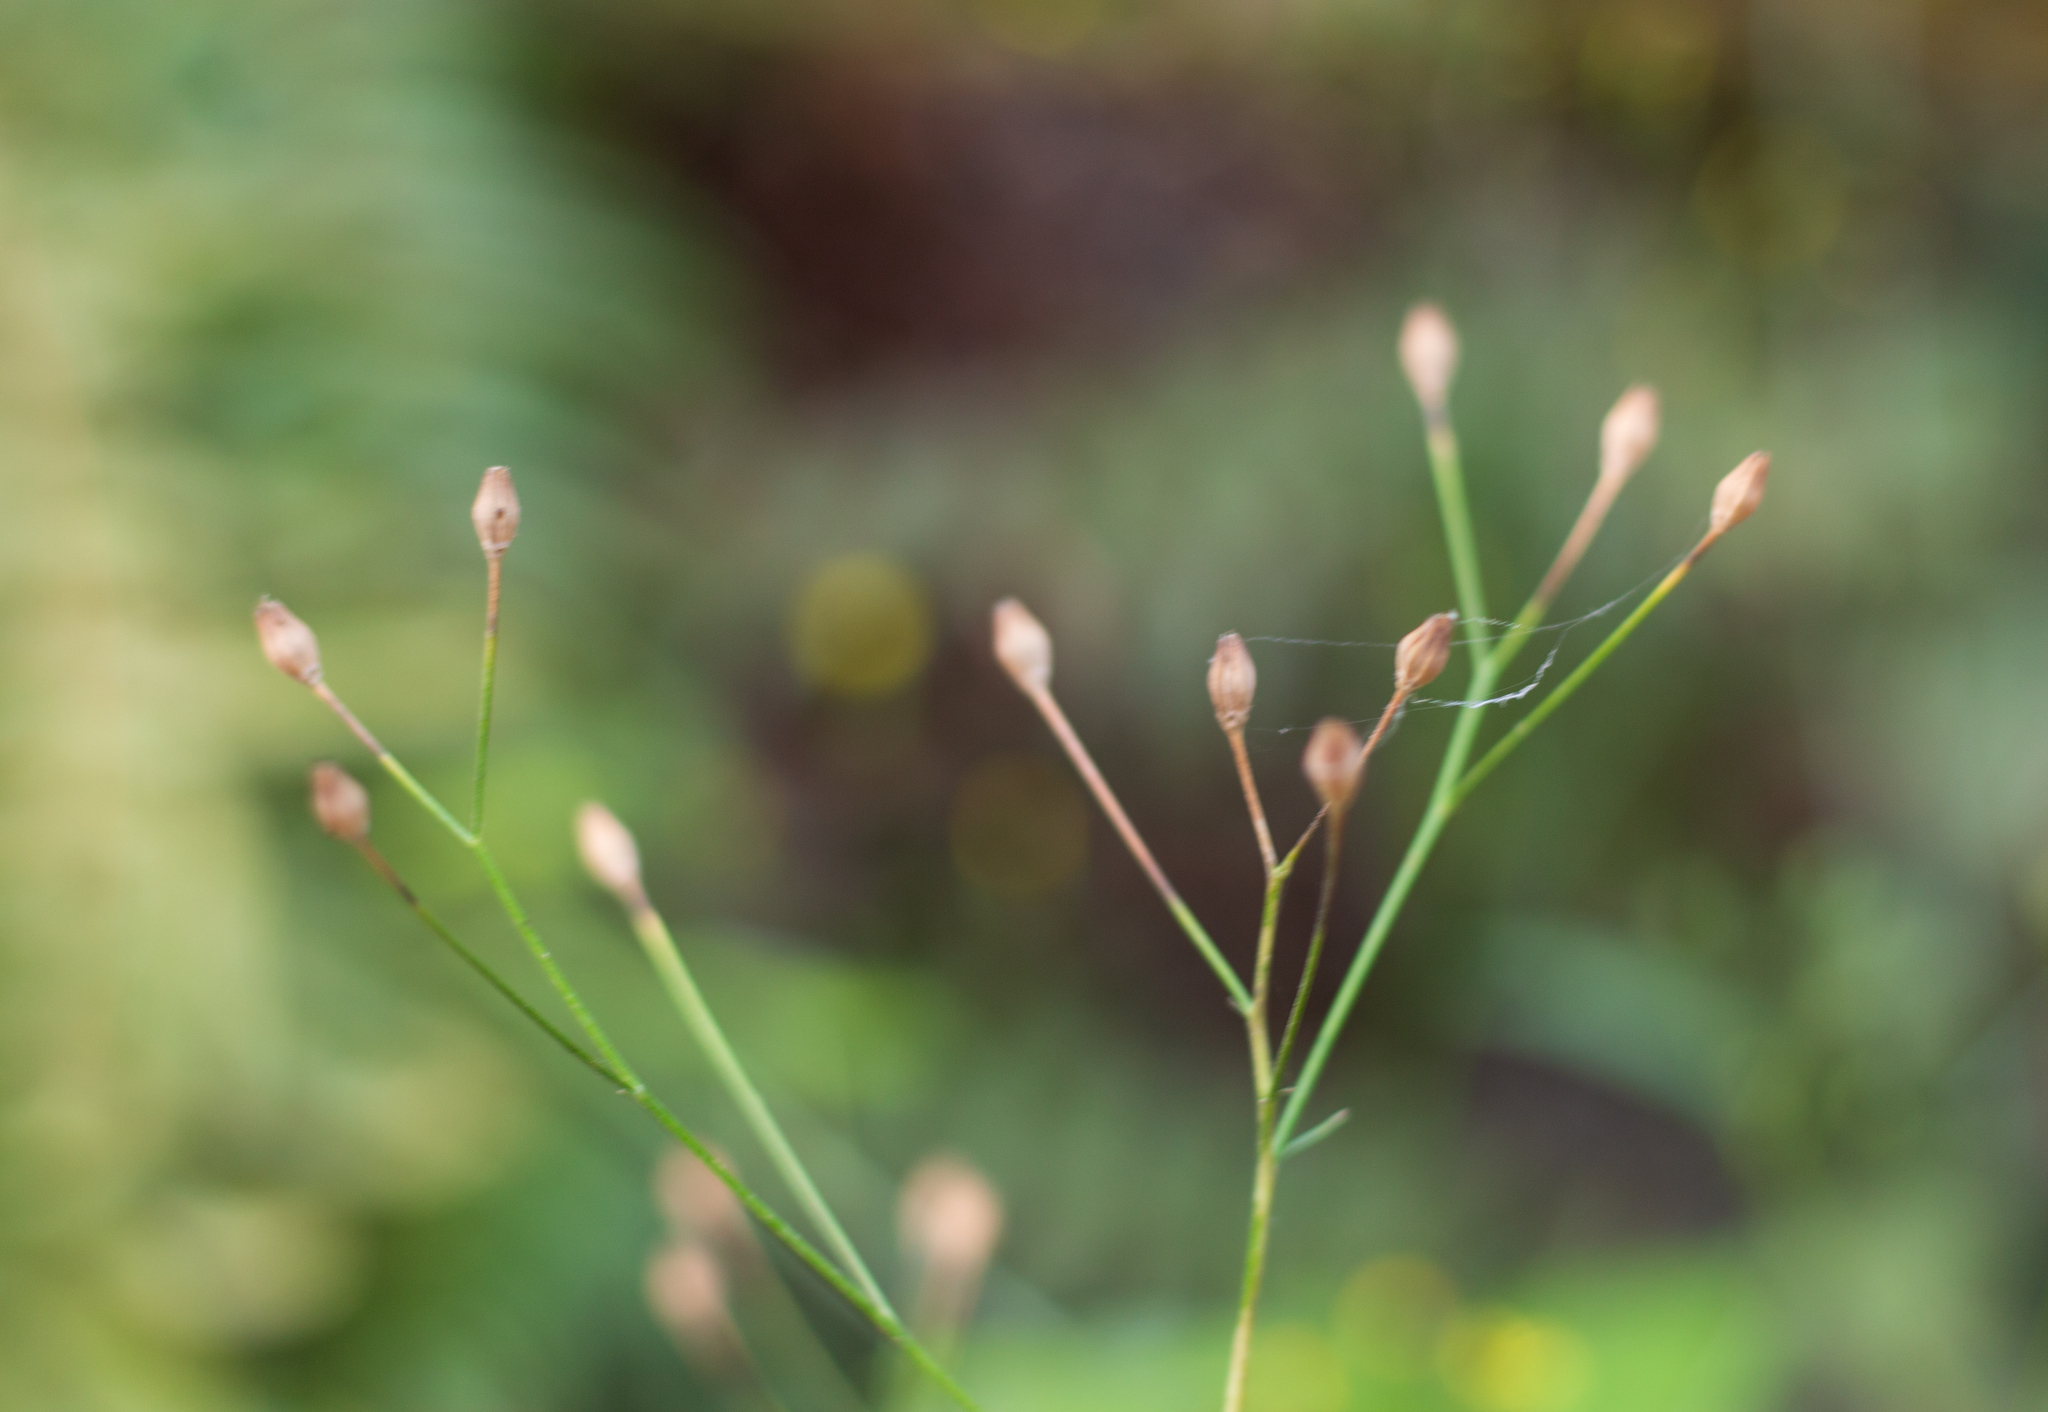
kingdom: Plantae
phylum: Tracheophyta
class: Magnoliopsida
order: Asterales
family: Asteraceae
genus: Lapsana
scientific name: Lapsana communis
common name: Nipplewort
